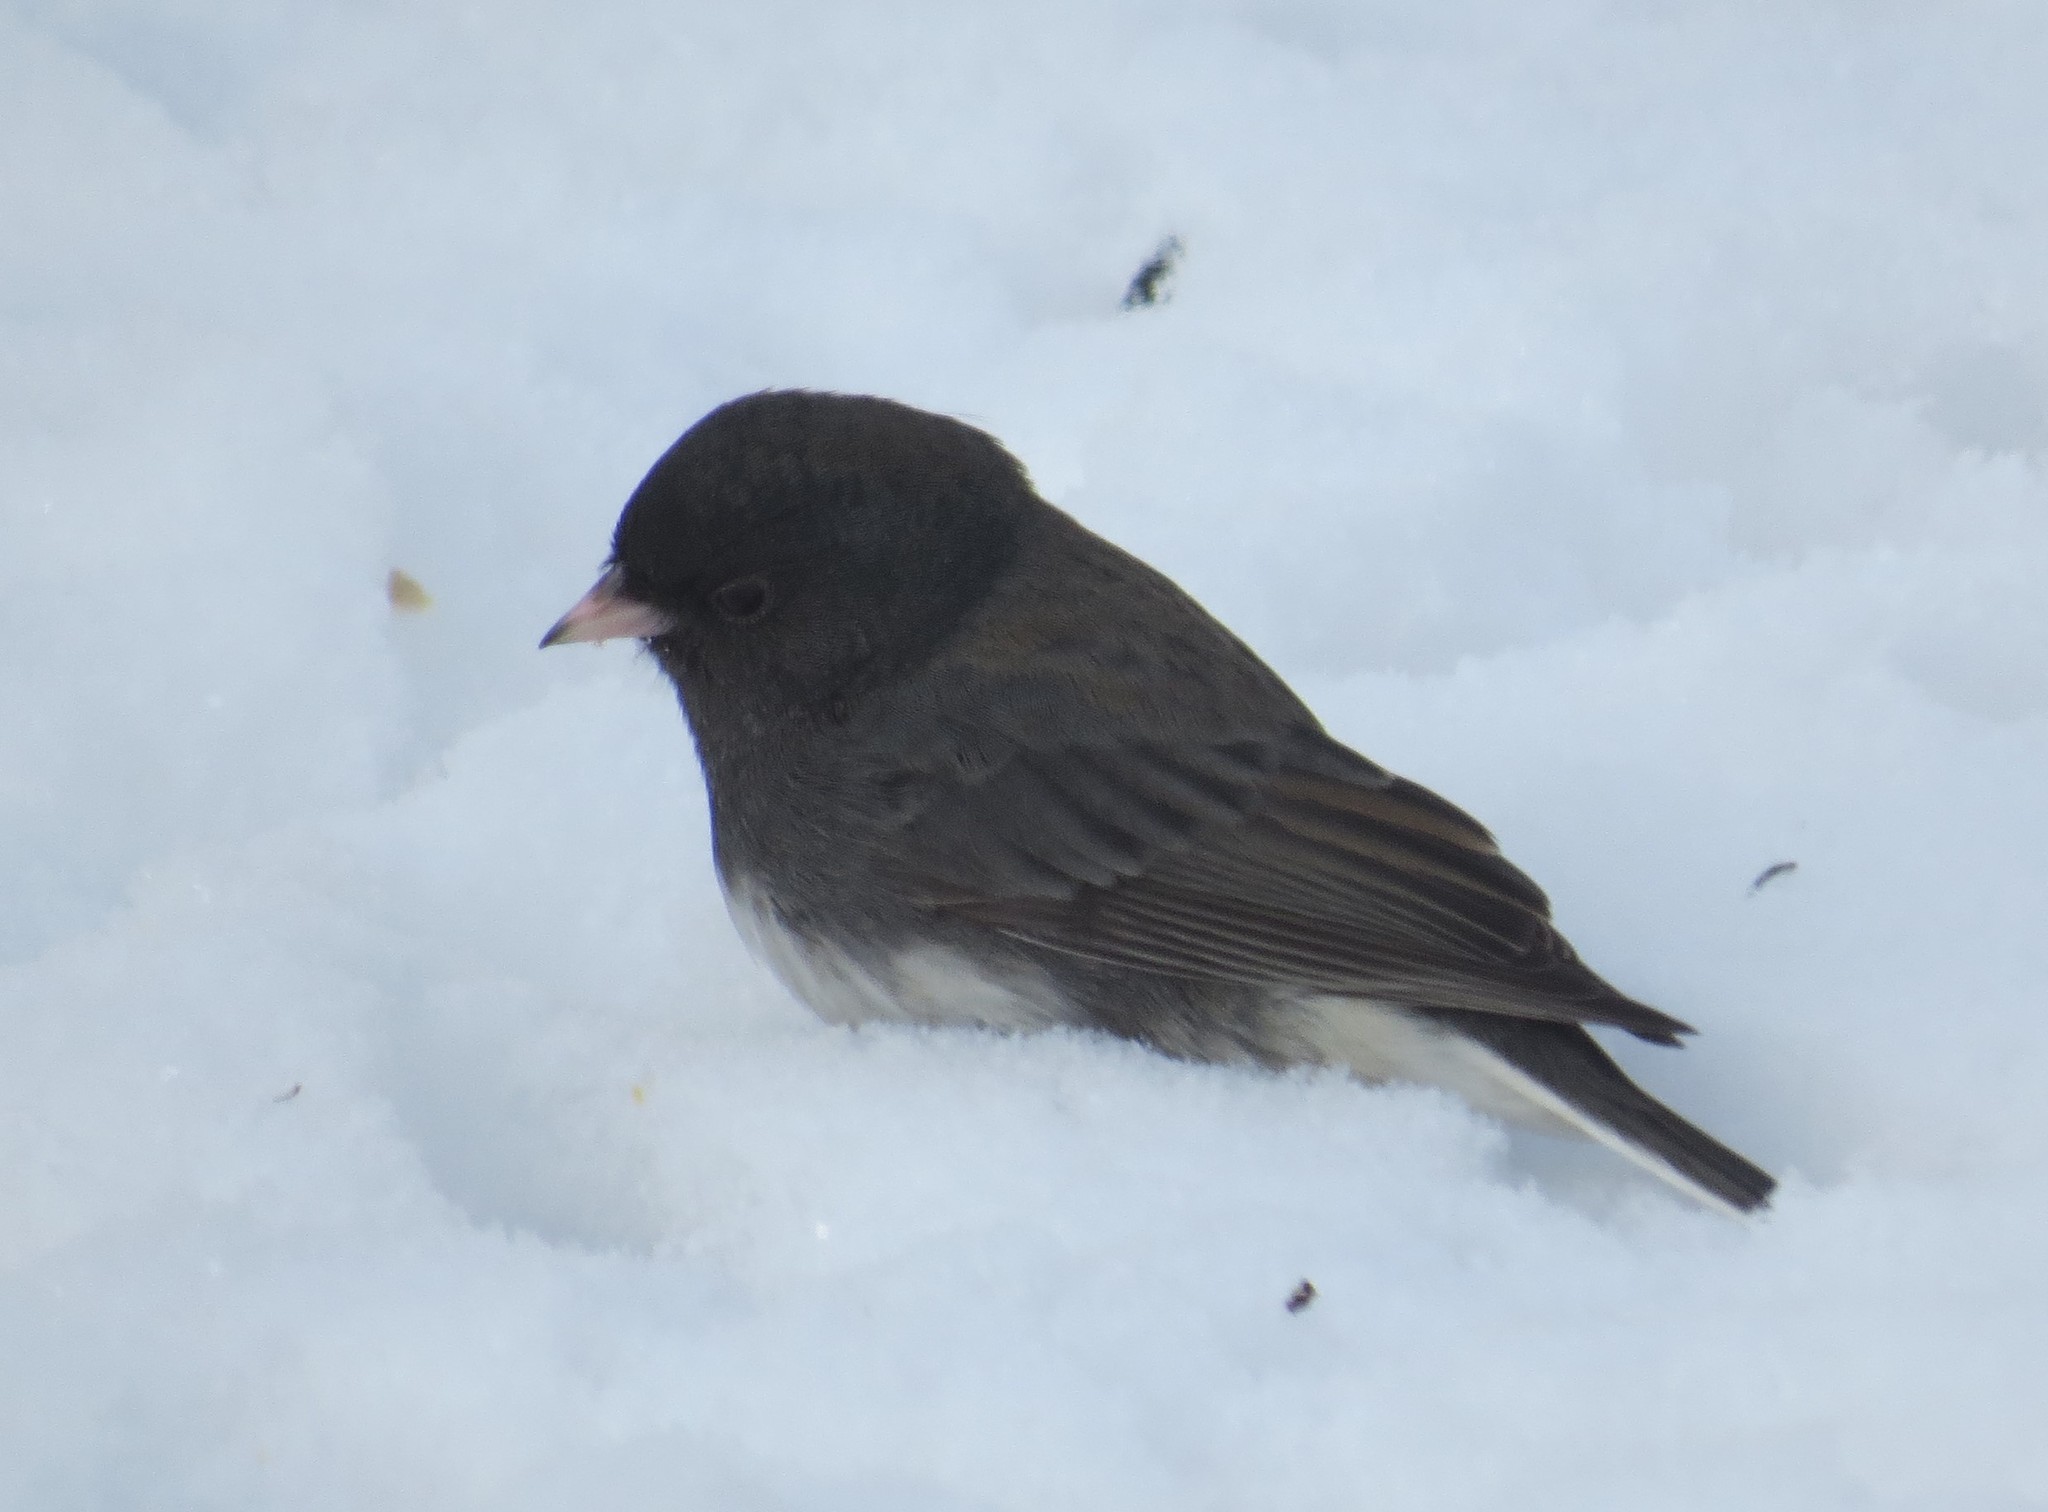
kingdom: Animalia
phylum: Chordata
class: Aves
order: Passeriformes
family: Passerellidae
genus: Junco
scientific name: Junco hyemalis
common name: Dark-eyed junco
